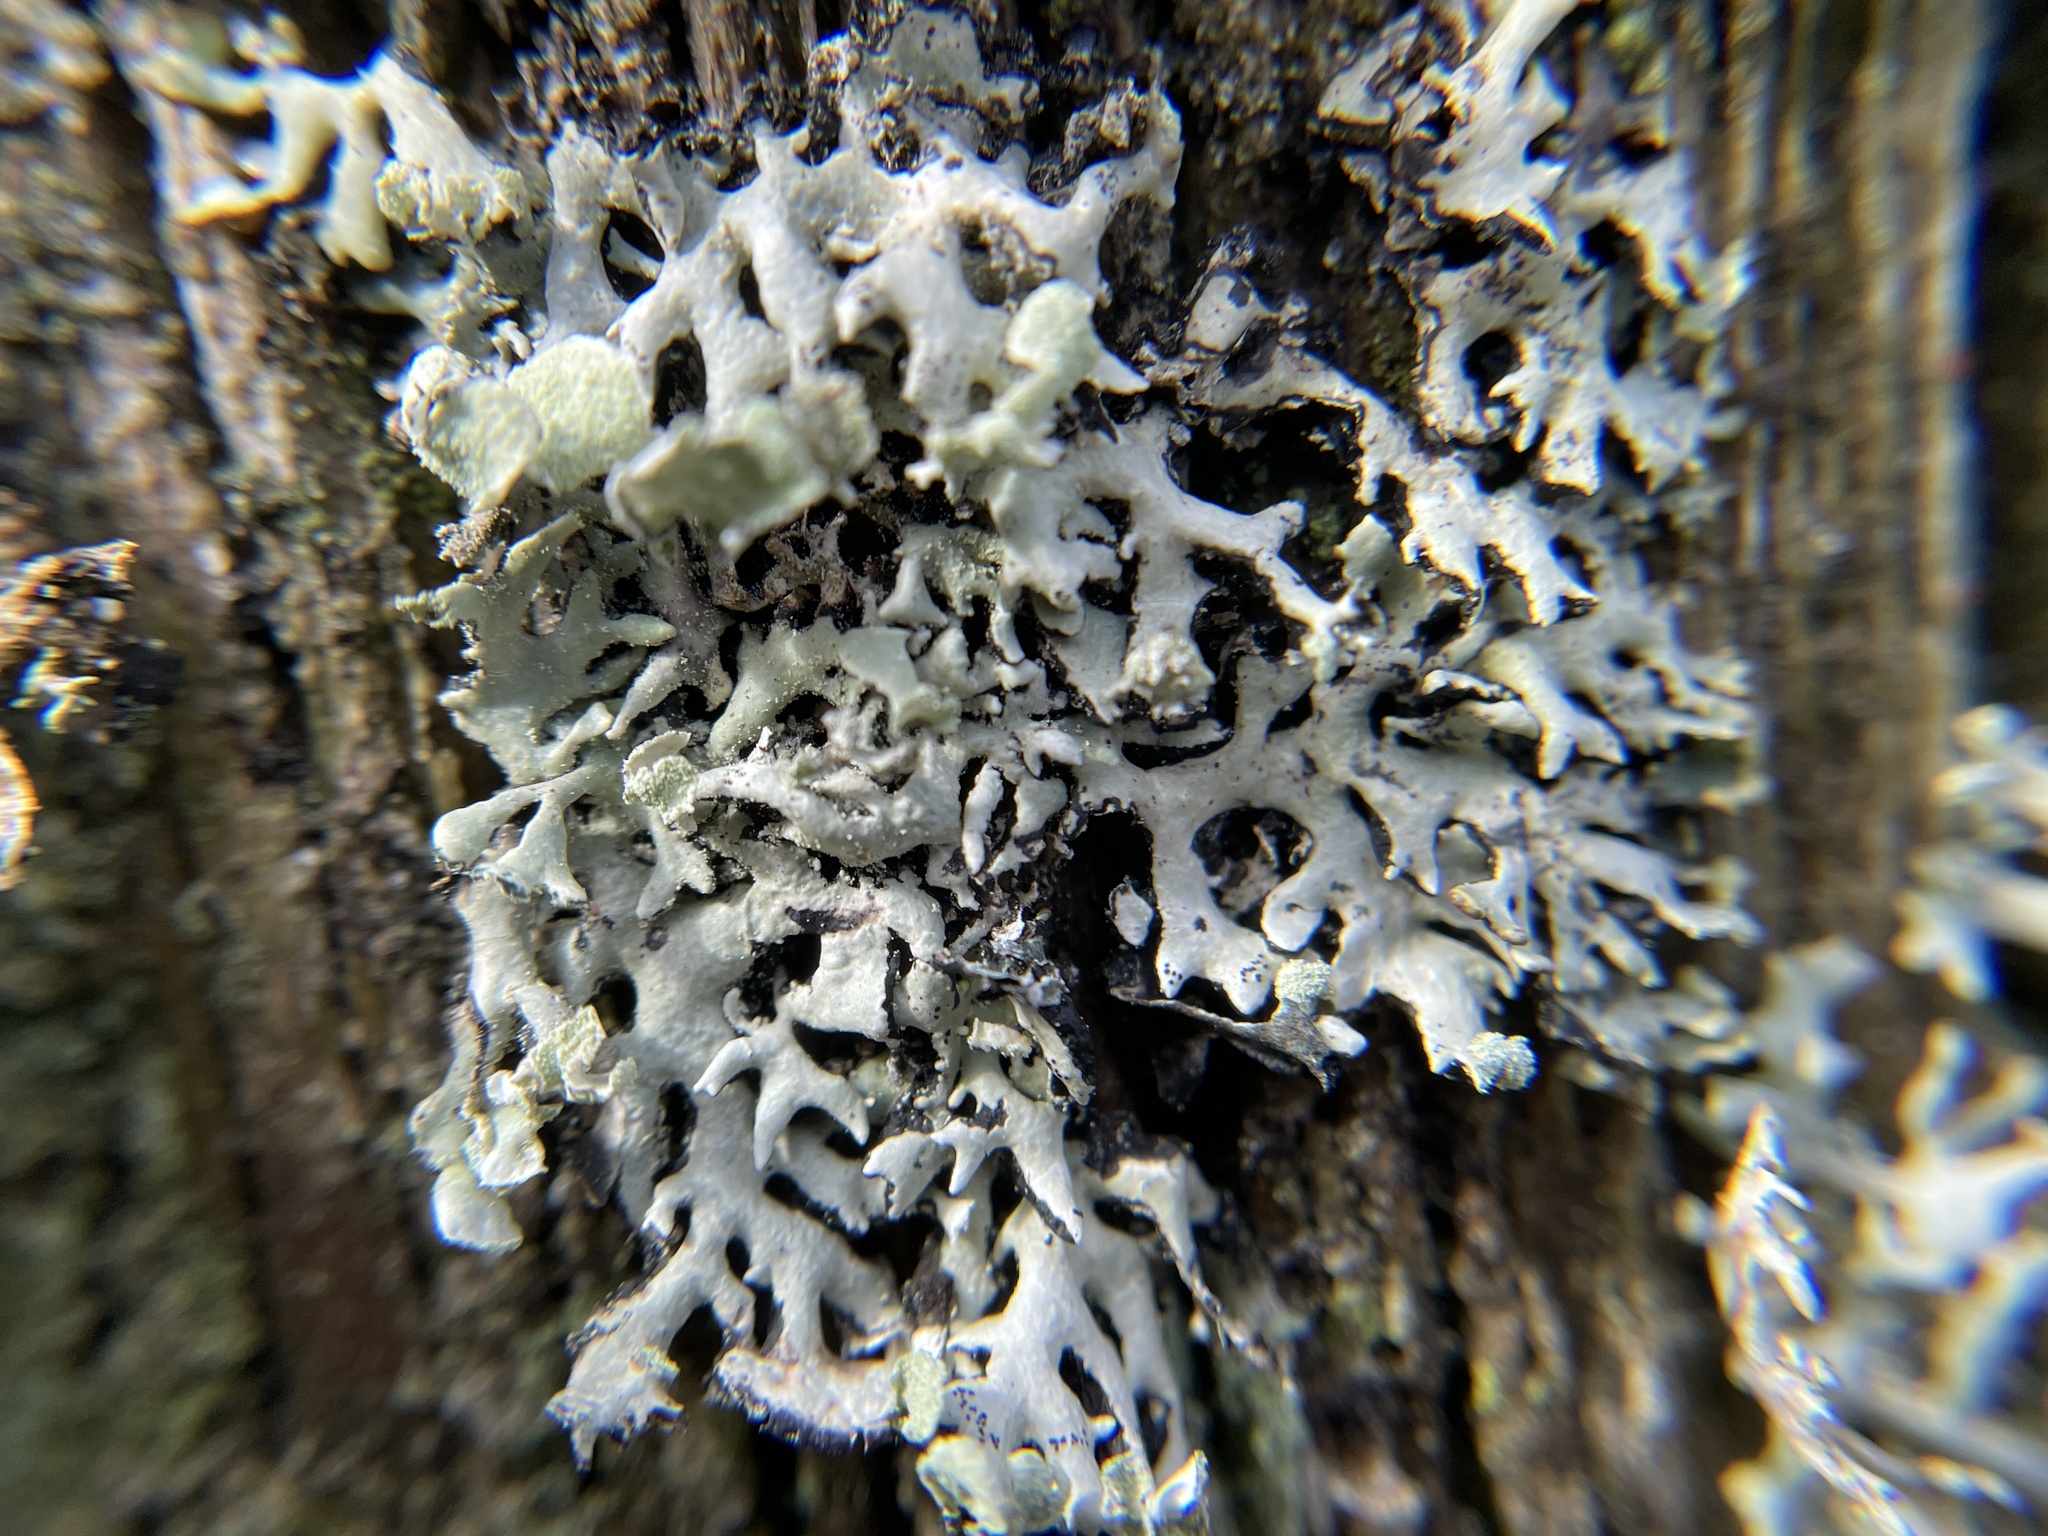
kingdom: Fungi
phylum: Ascomycota
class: Lecanoromycetes
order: Lecanorales
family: Parmeliaceae
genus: Hypogymnia
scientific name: Hypogymnia physodes
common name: Dark crottle
